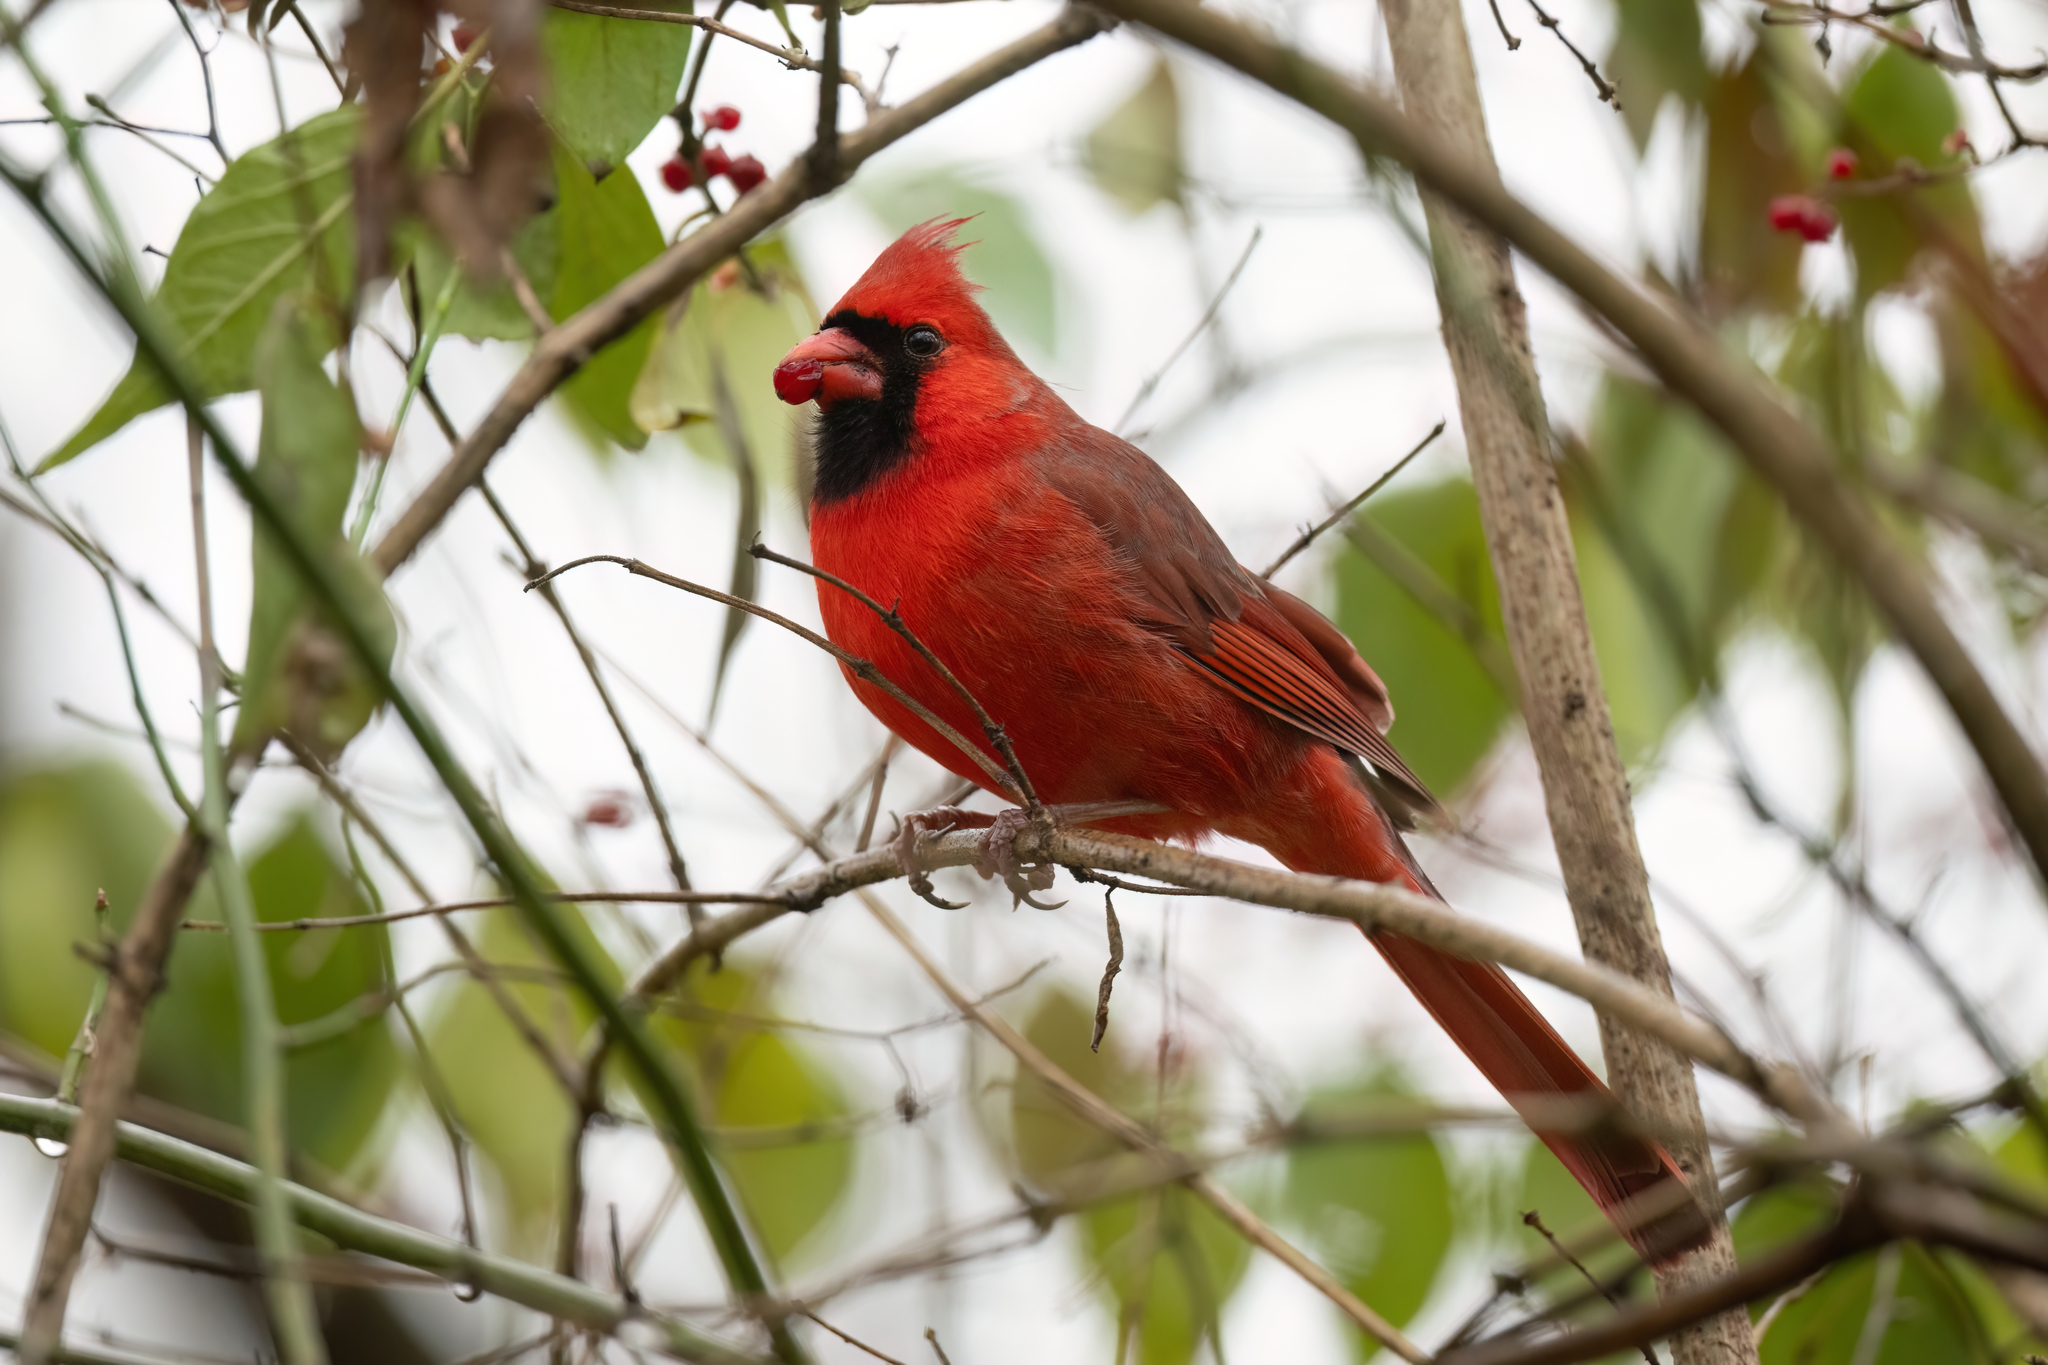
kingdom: Animalia
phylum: Chordata
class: Aves
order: Passeriformes
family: Cardinalidae
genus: Cardinalis
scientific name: Cardinalis cardinalis
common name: Northern cardinal
